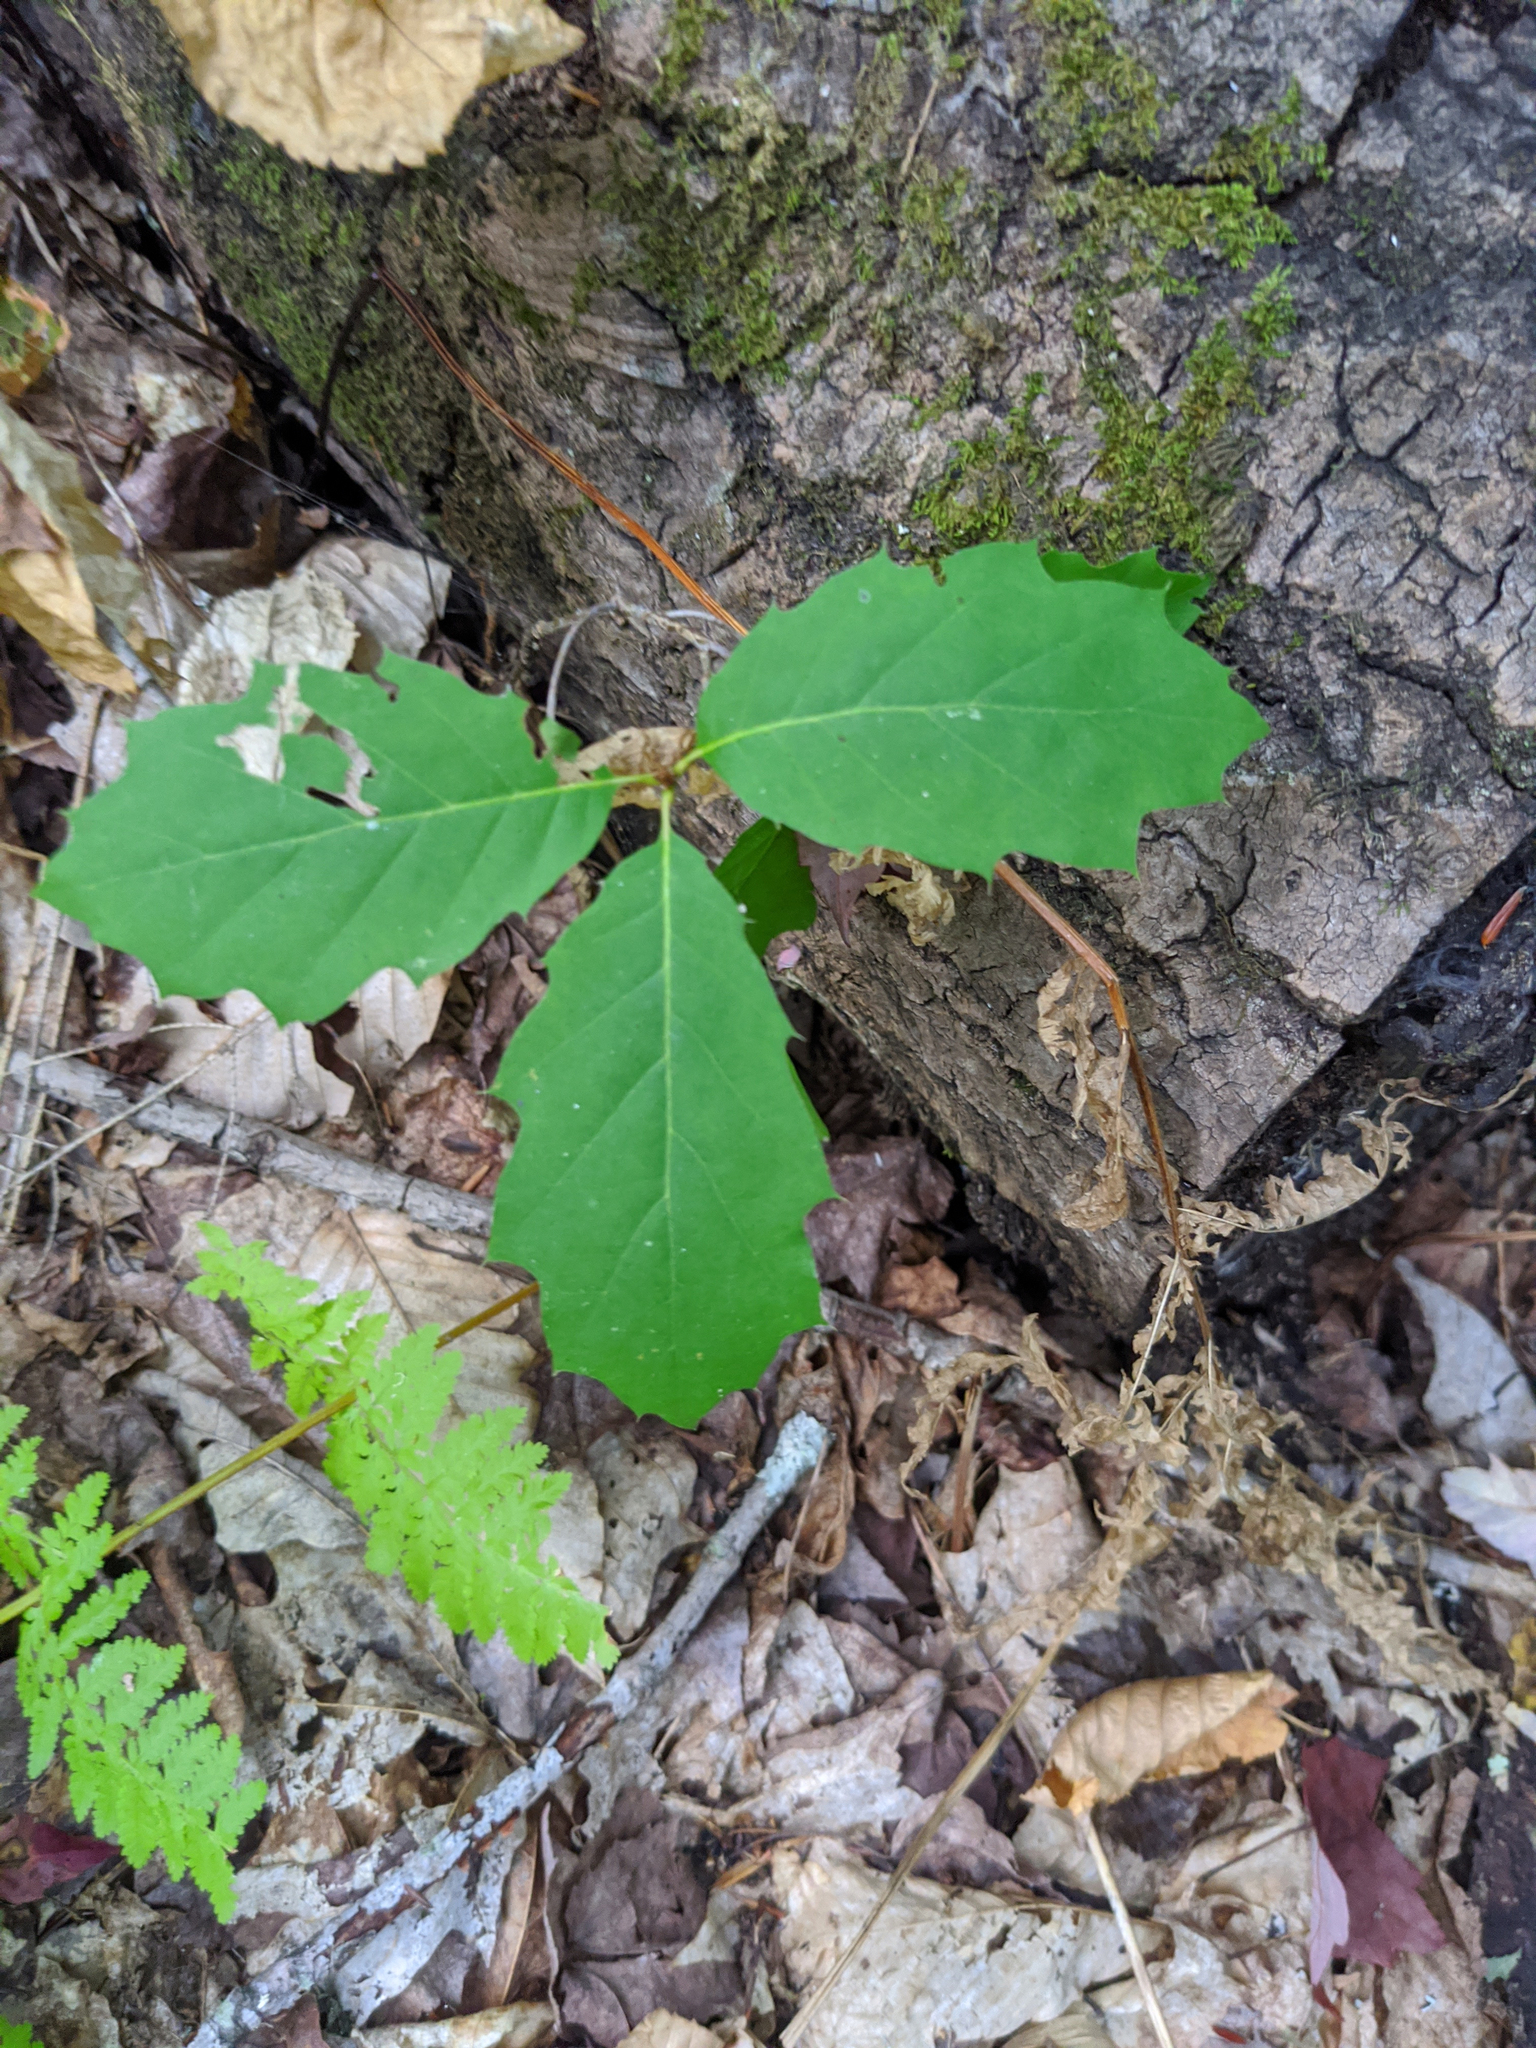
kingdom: Plantae
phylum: Tracheophyta
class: Magnoliopsida
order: Fagales
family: Fagaceae
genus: Quercus
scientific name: Quercus rubra
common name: Red oak
